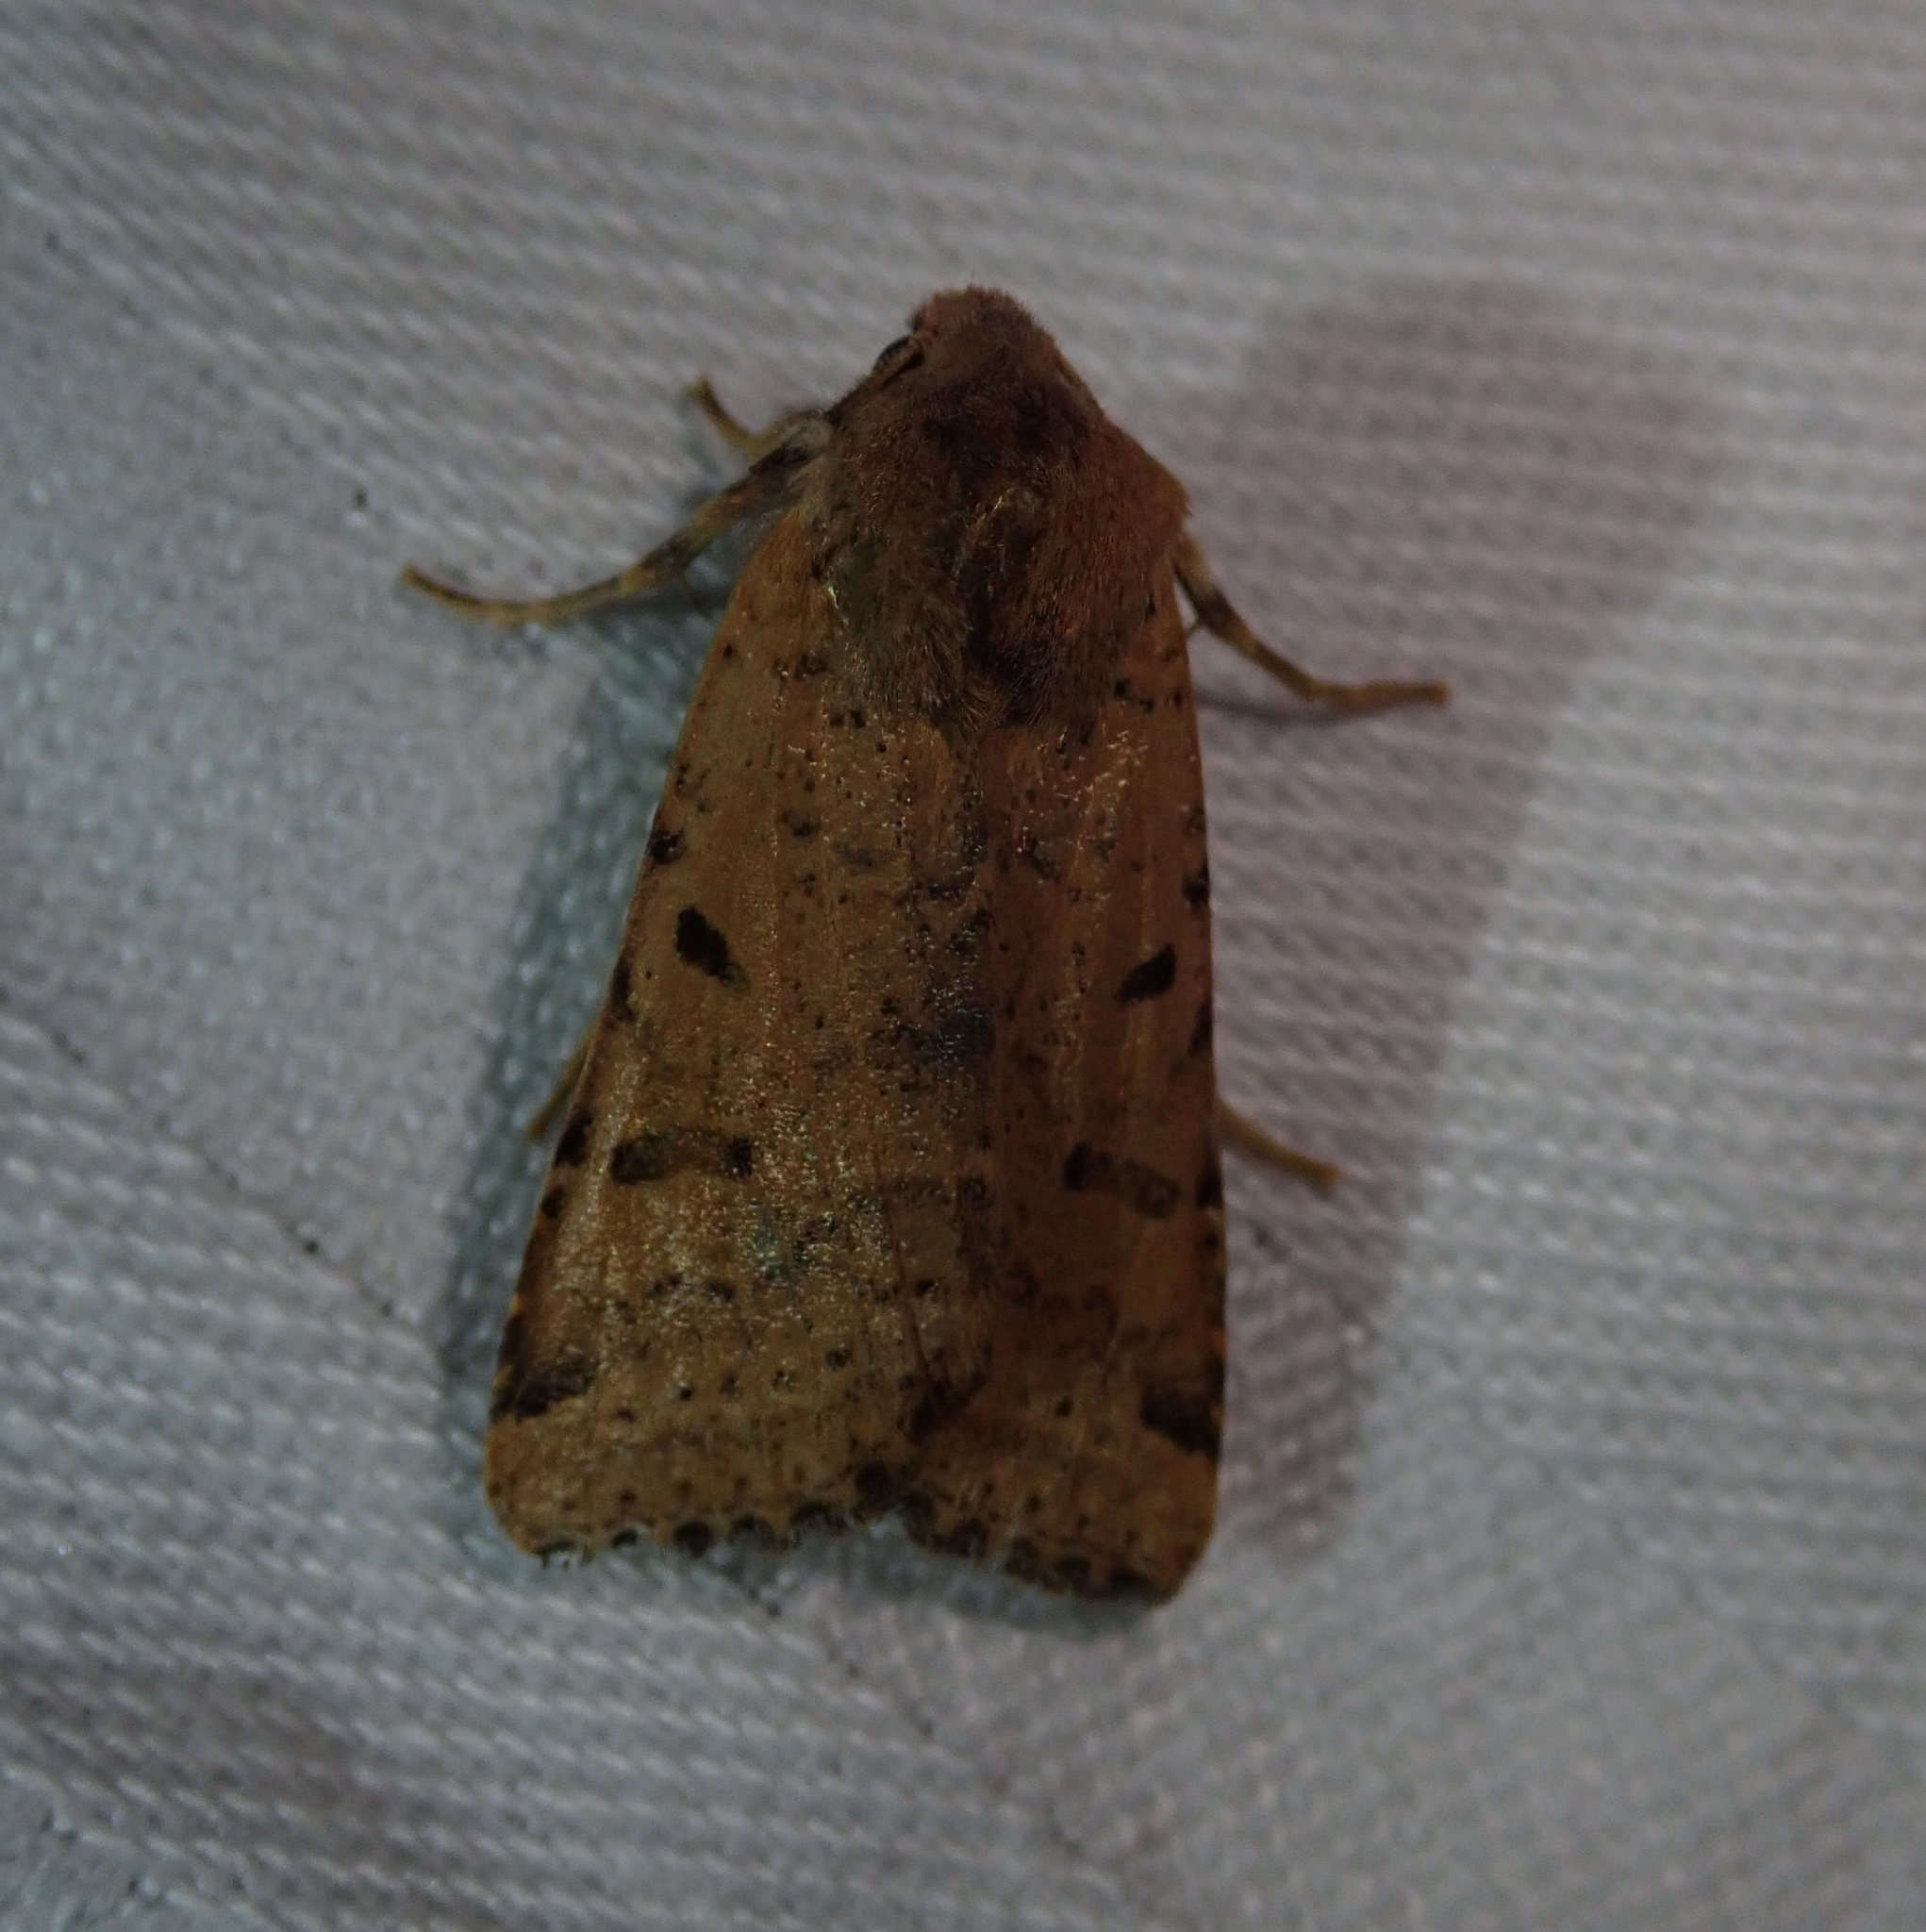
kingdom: Animalia
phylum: Arthropoda
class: Insecta
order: Lepidoptera
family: Noctuidae
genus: Agrochola
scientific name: Agrochola lunosa
